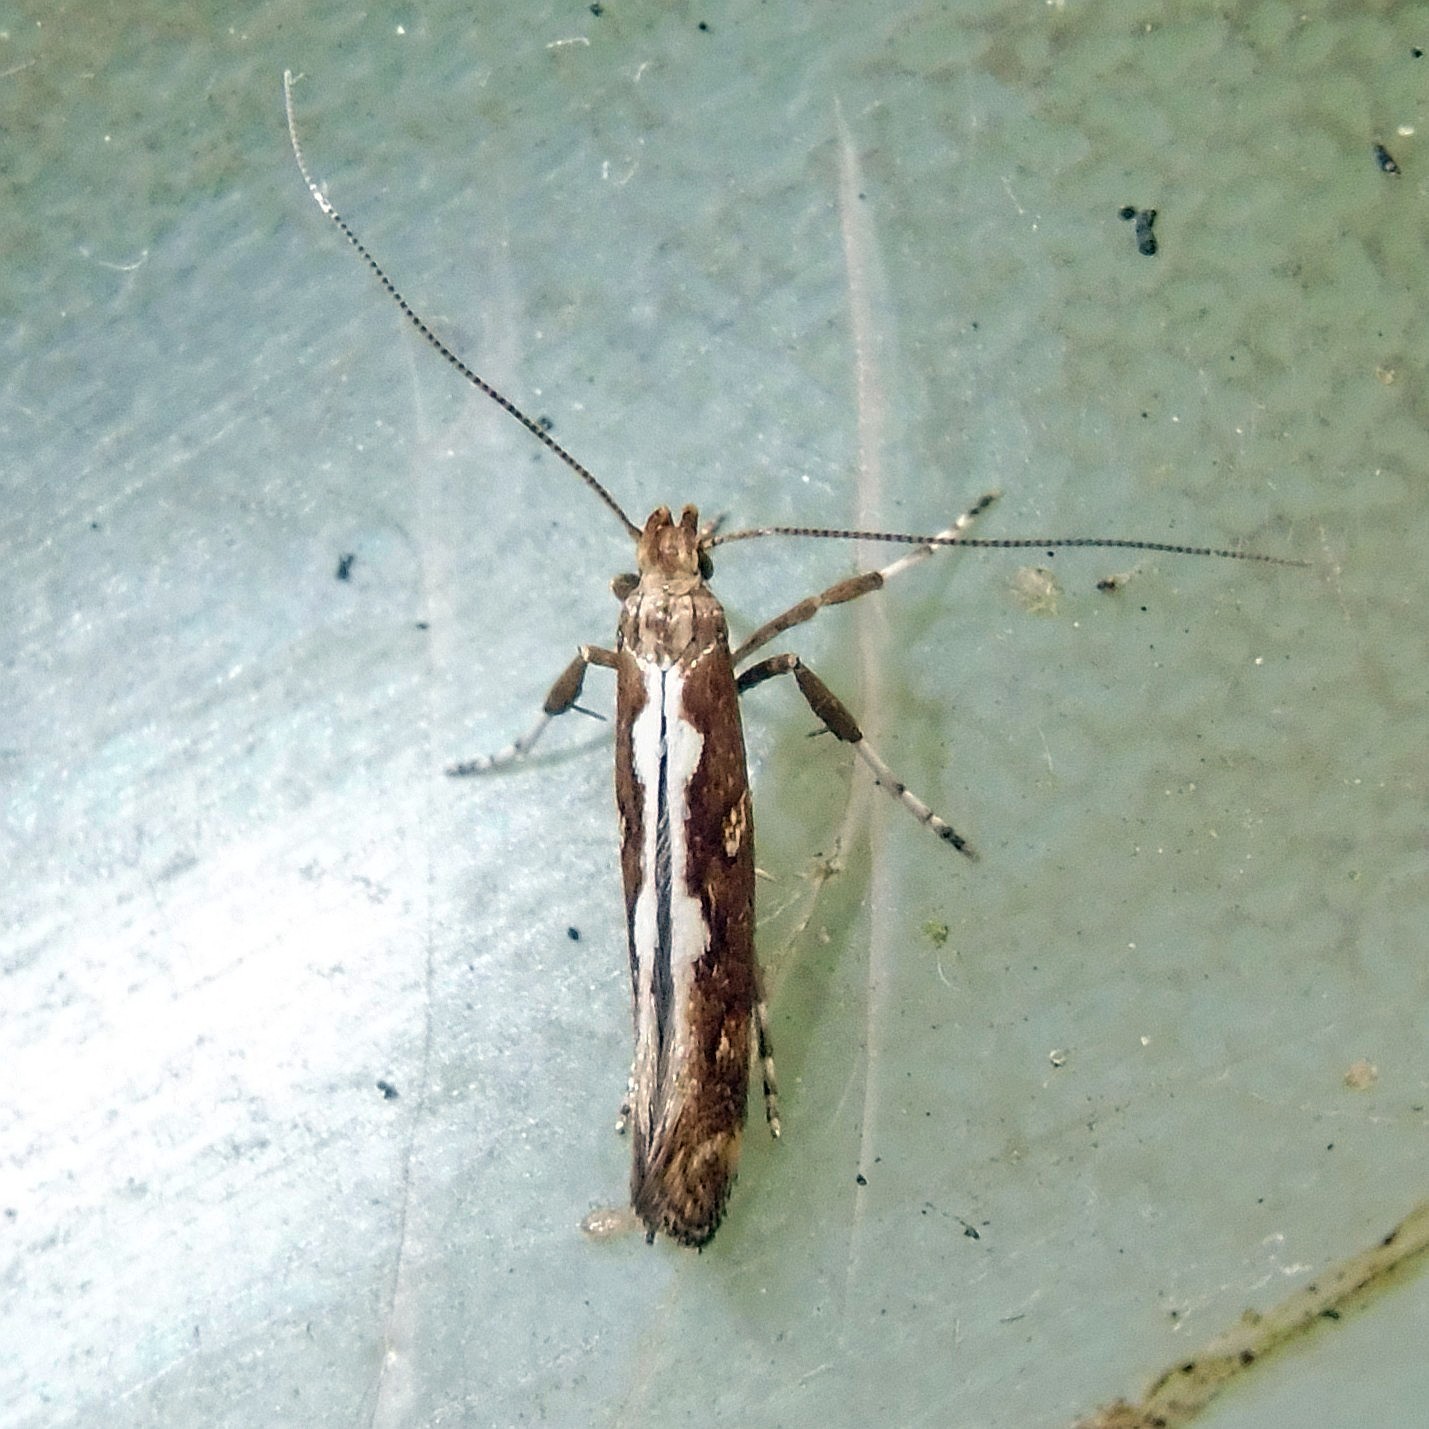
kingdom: Animalia
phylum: Arthropoda
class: Insecta
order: Lepidoptera
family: Gracillariidae
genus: Calybites
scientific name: Calybites phasianipennella
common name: Little slender
